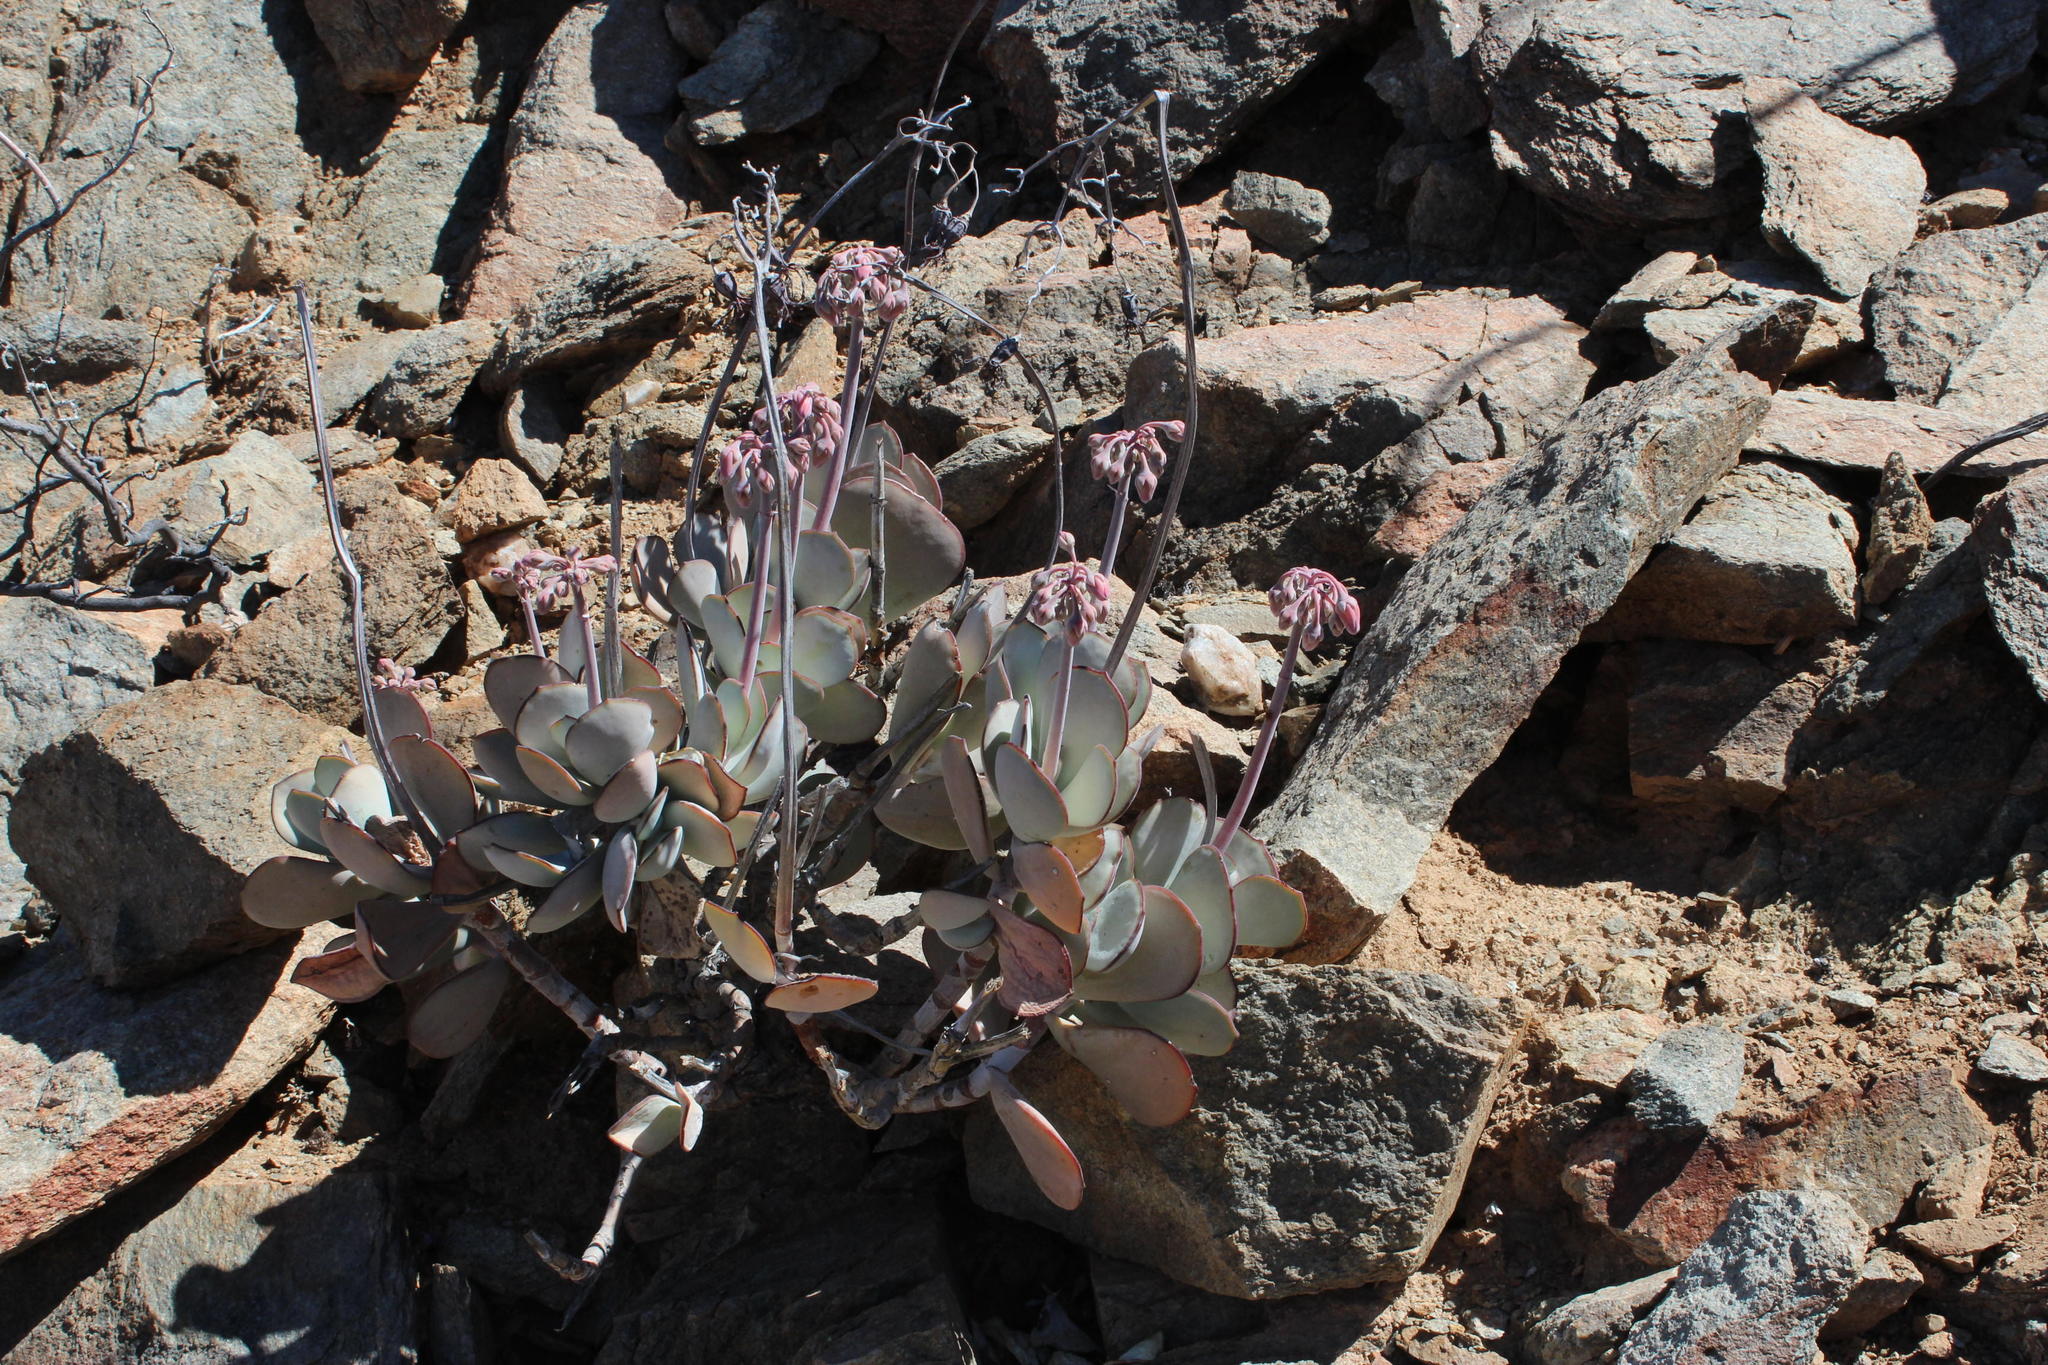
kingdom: Plantae
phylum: Tracheophyta
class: Magnoliopsida
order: Saxifragales
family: Crassulaceae
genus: Cotyledon
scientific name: Cotyledon orbiculata
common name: Pig's ear
